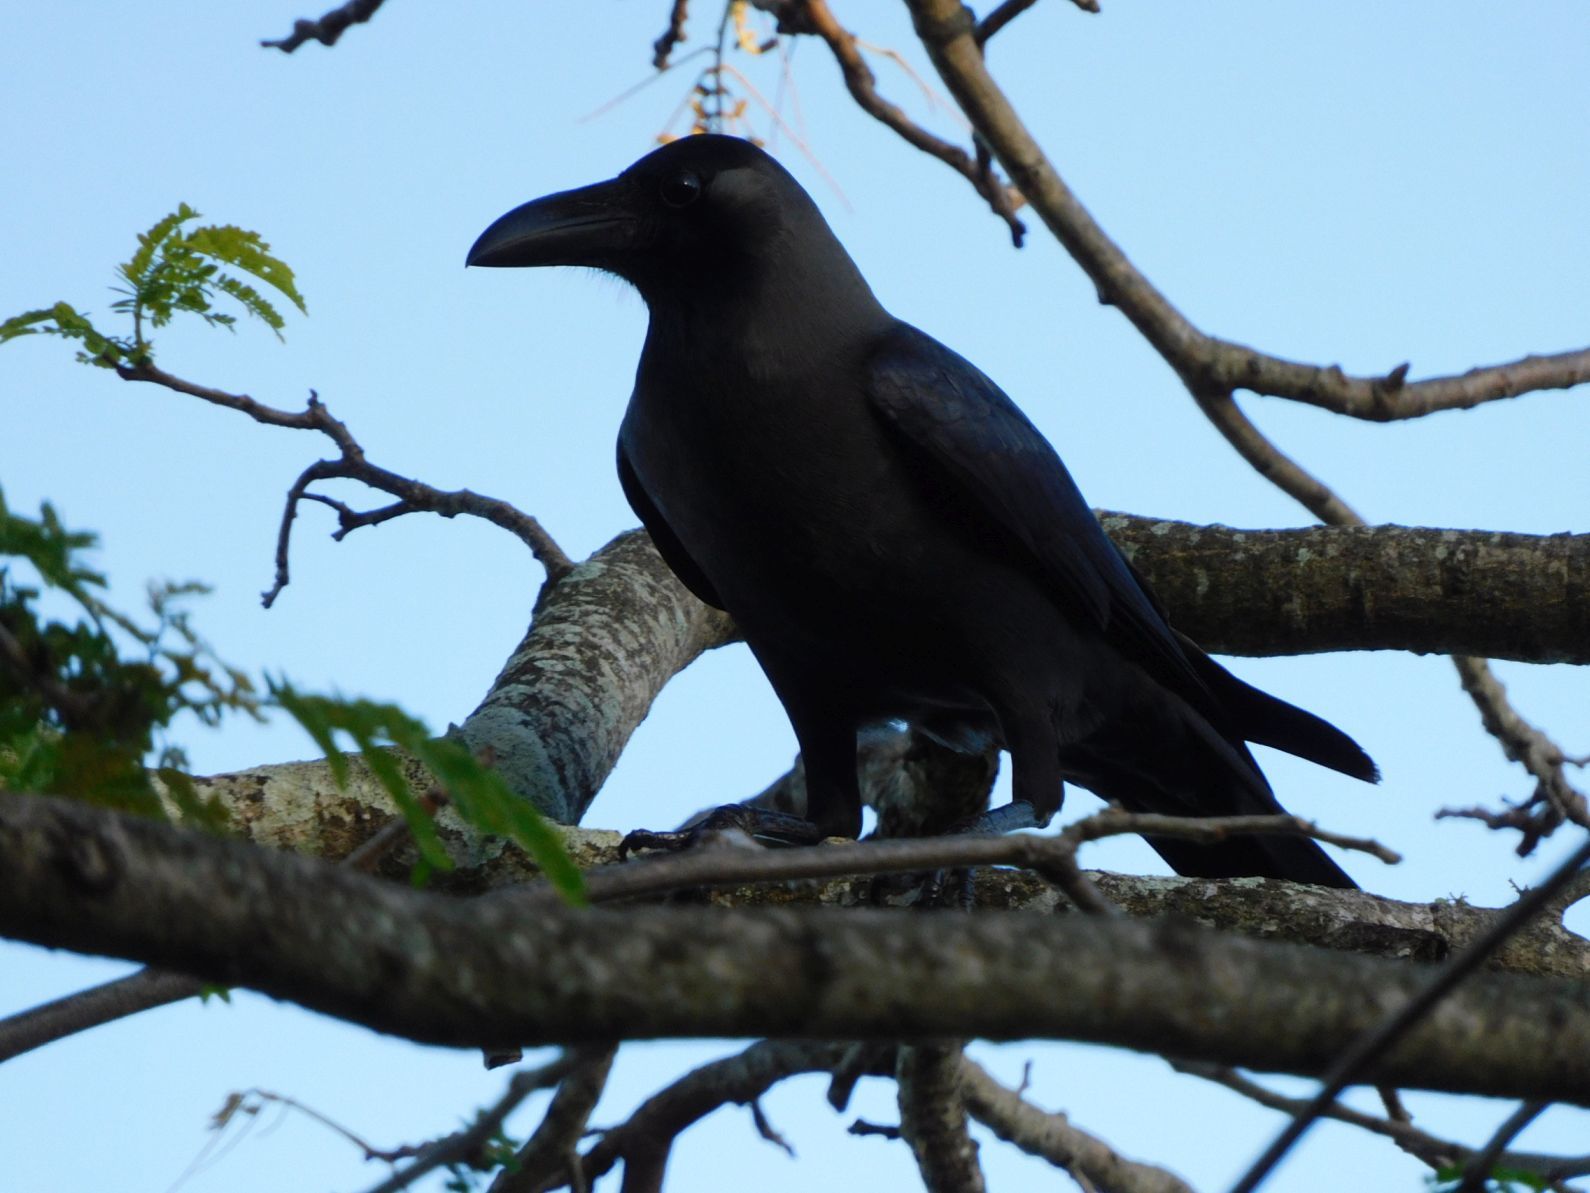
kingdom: Animalia
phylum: Chordata
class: Aves
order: Passeriformes
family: Corvidae
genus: Corvus
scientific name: Corvus splendens
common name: House crow
